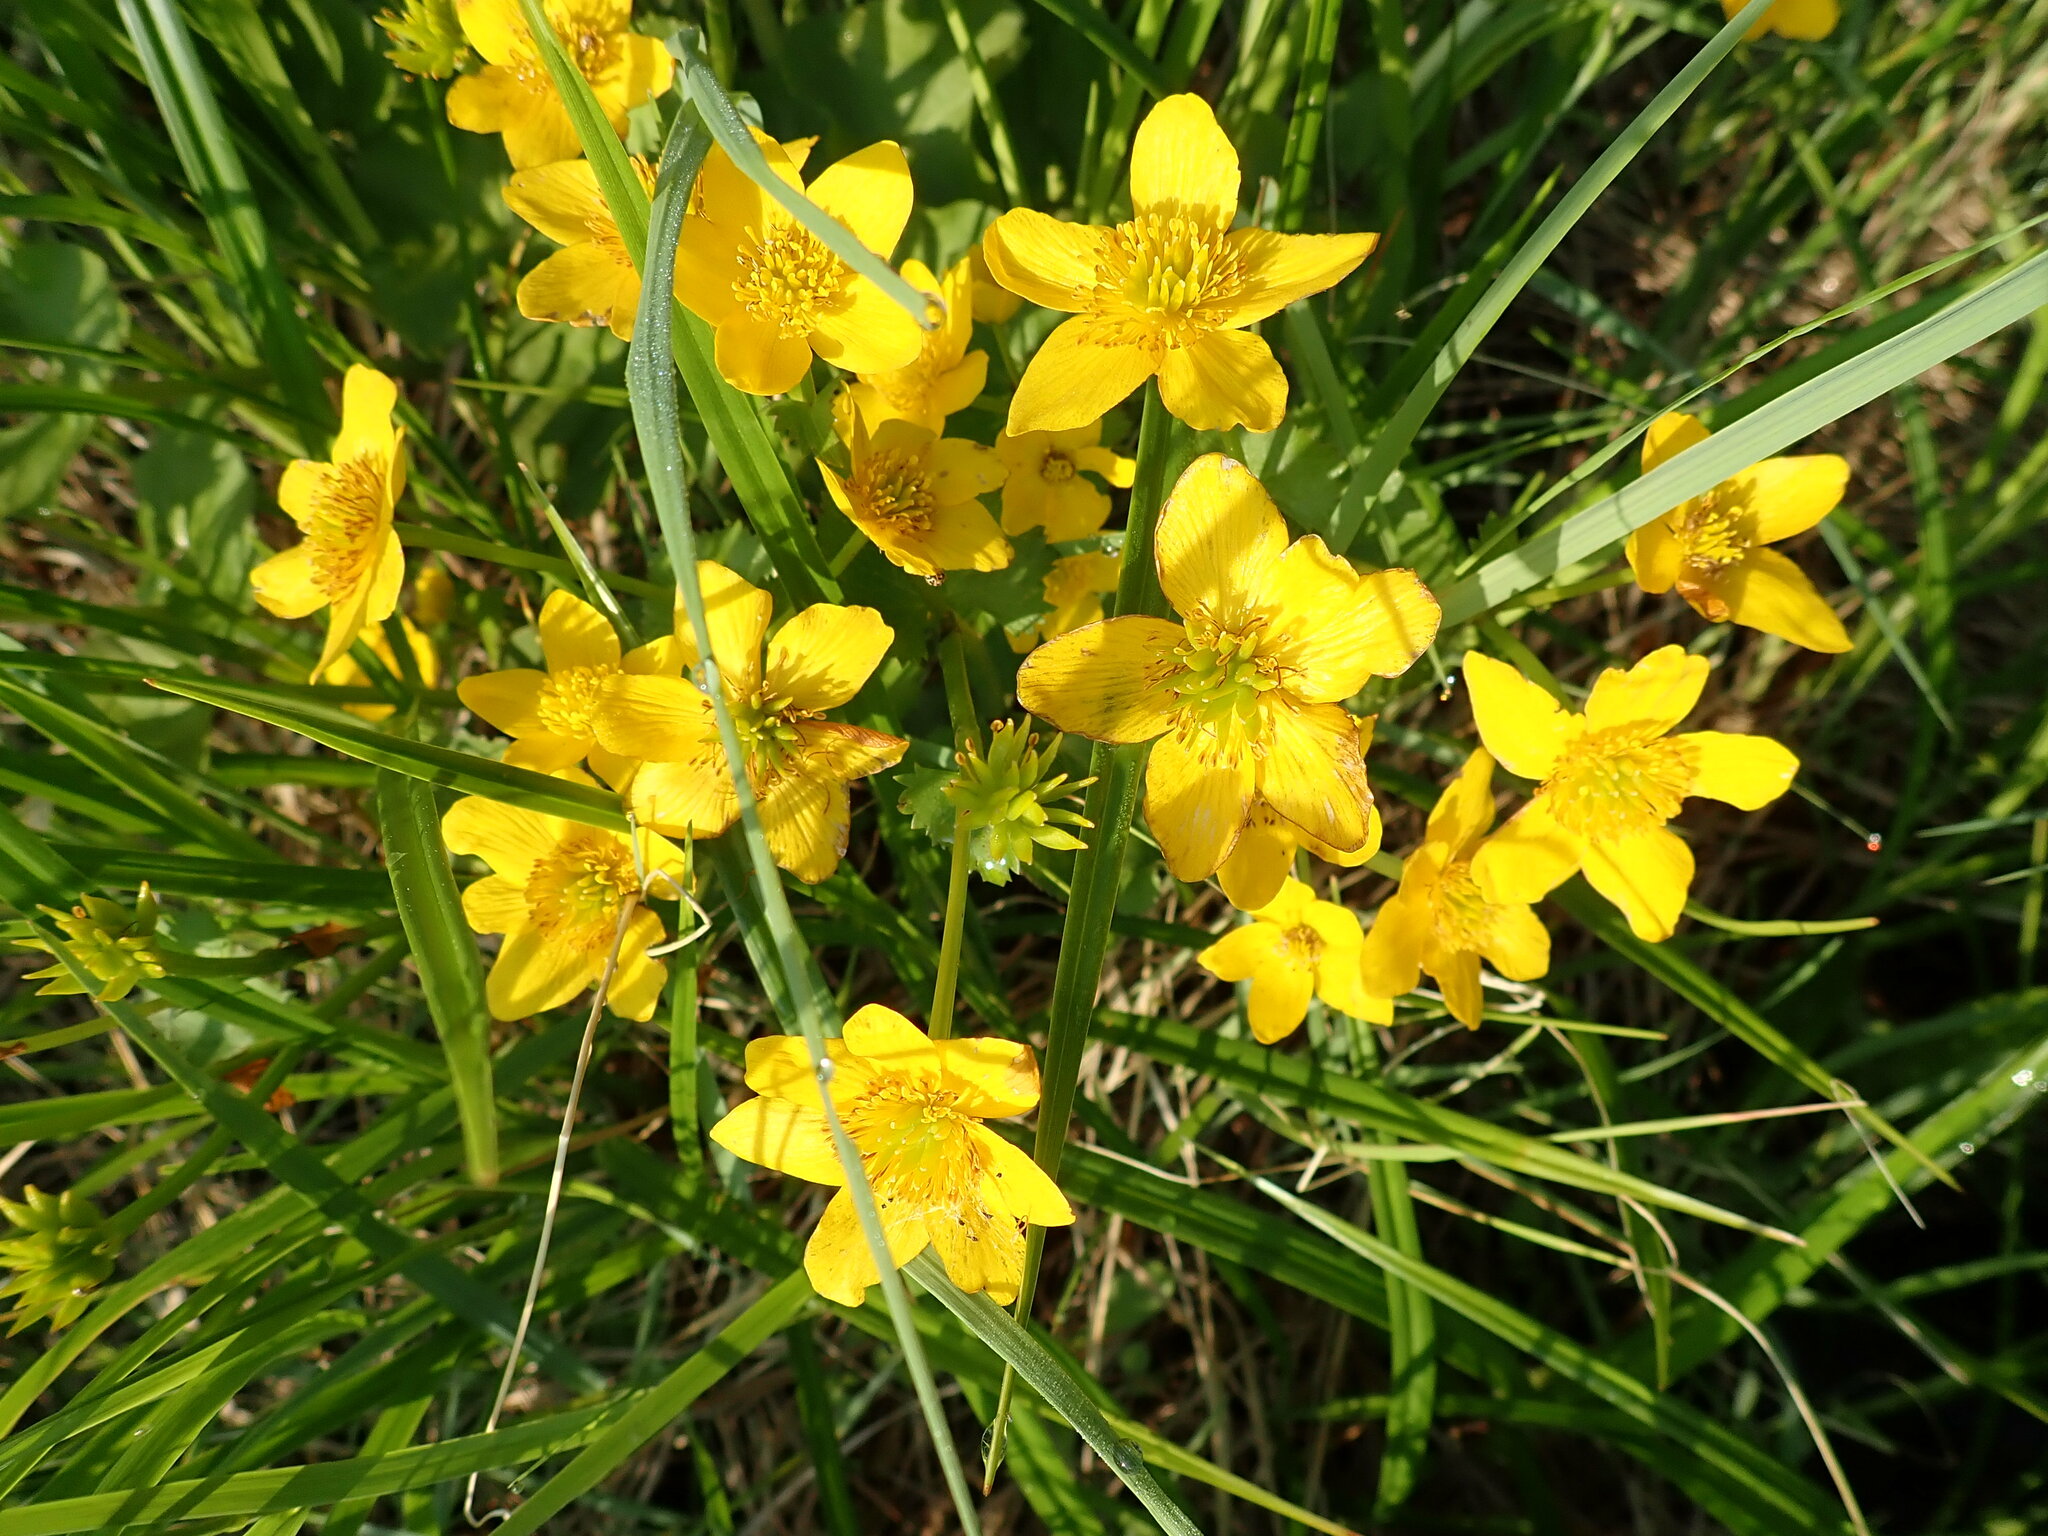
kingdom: Plantae
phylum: Tracheophyta
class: Magnoliopsida
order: Ranunculales
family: Ranunculaceae
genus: Caltha
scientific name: Caltha palustris
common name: Marsh marigold
